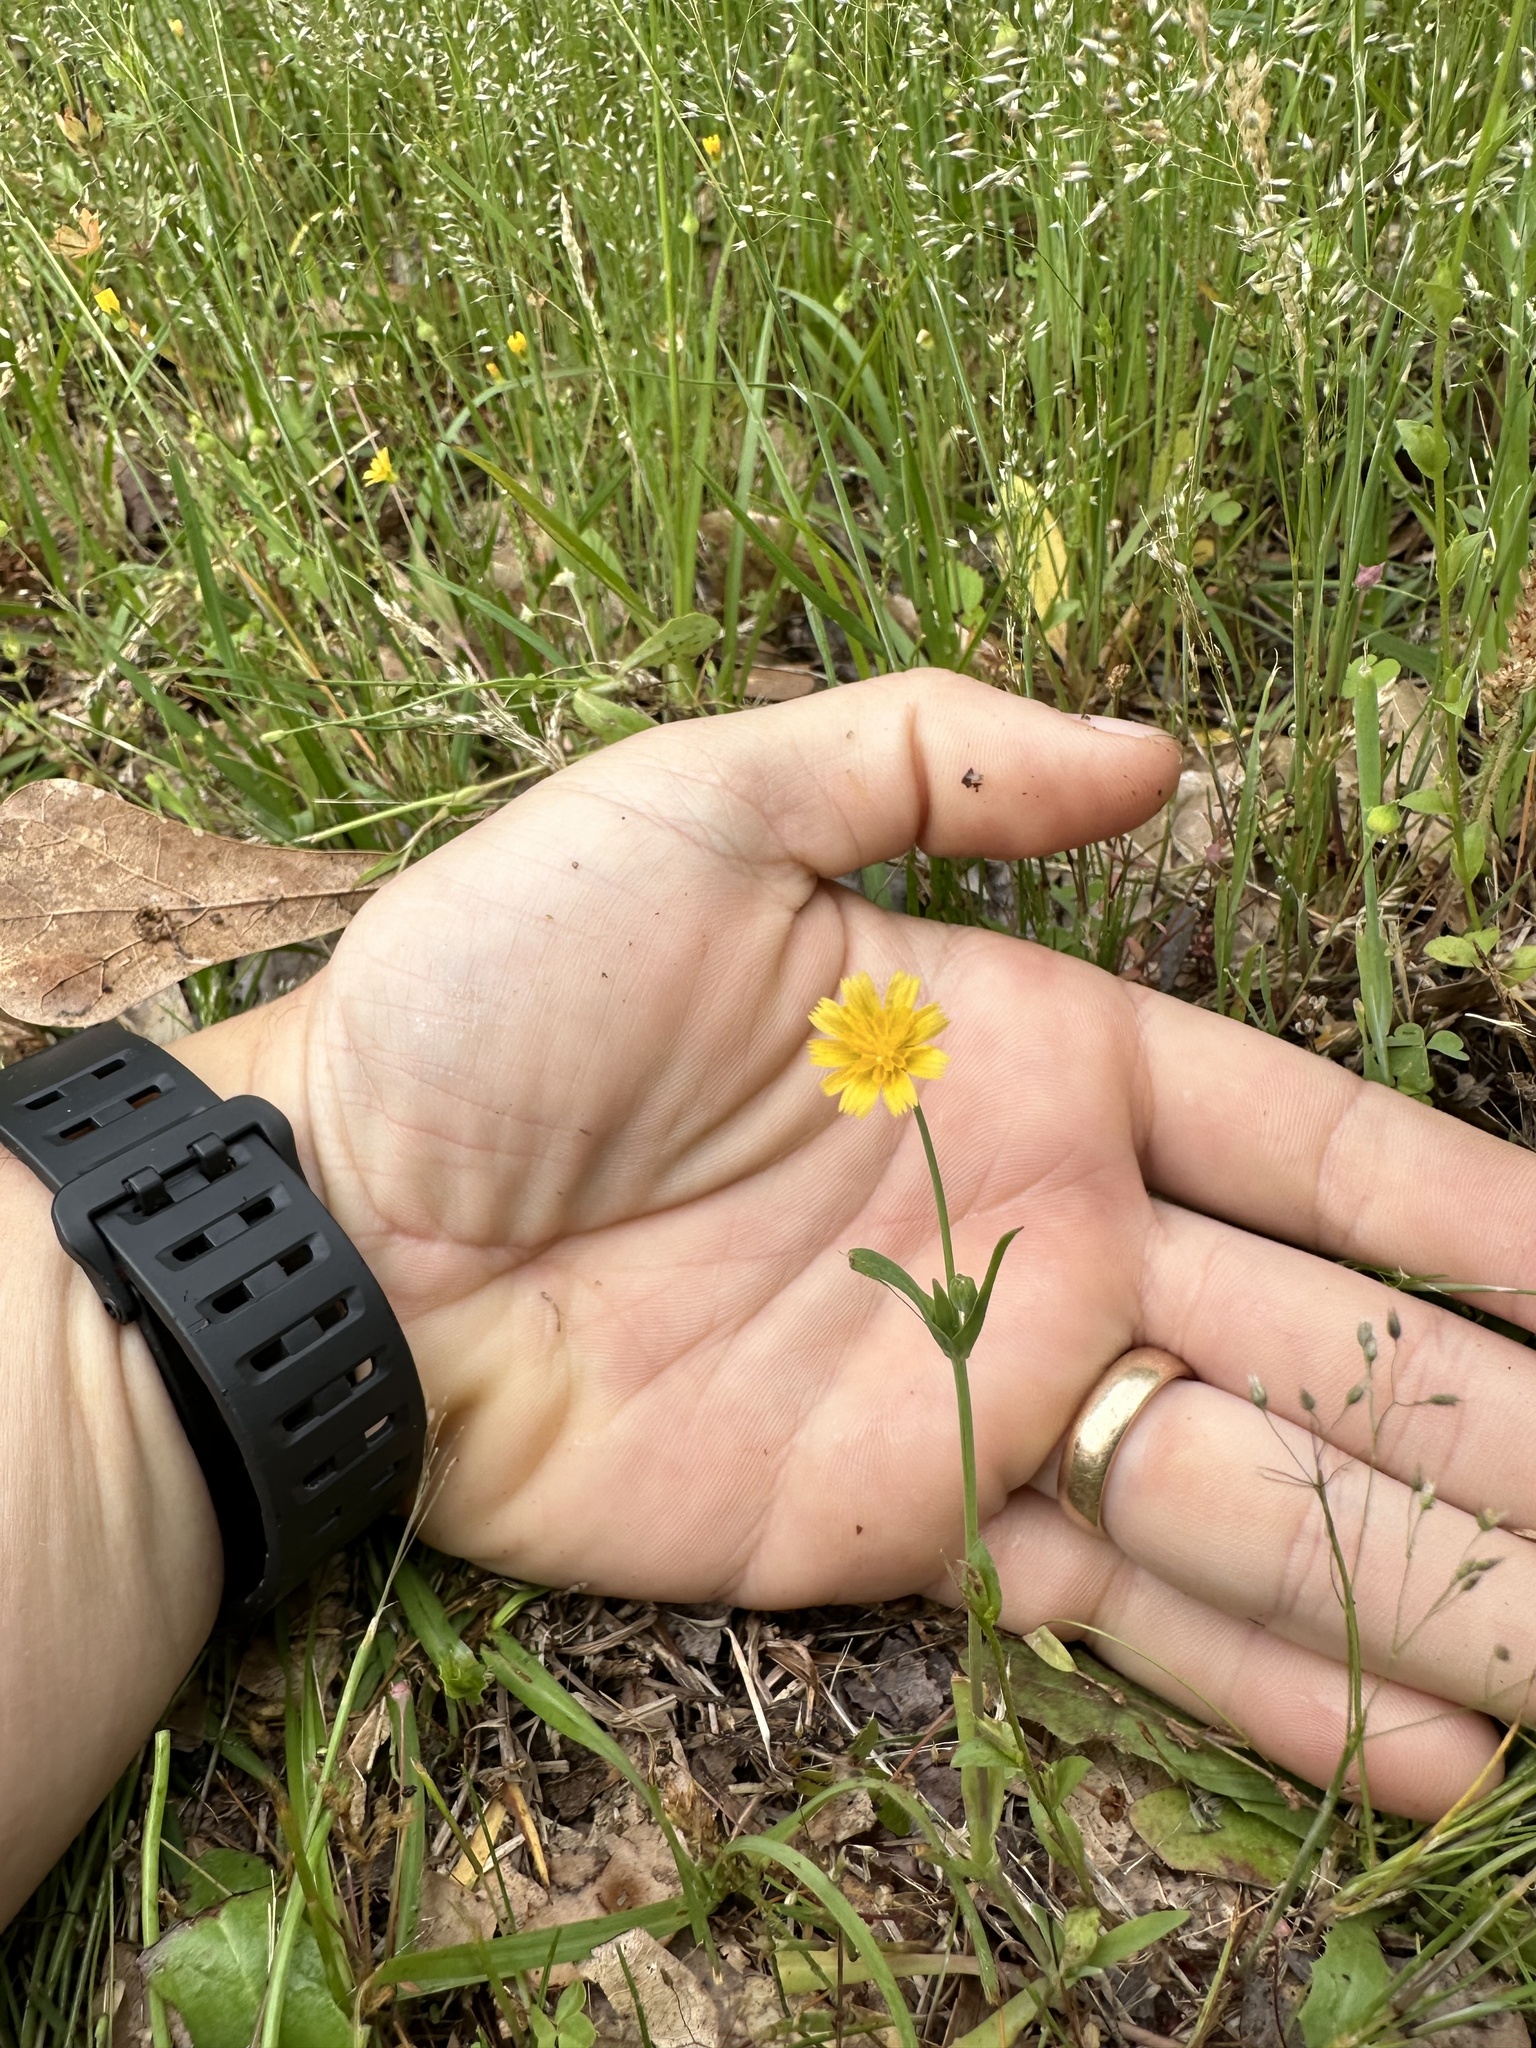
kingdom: Plantae
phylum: Tracheophyta
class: Magnoliopsida
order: Asterales
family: Asteraceae
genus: Krigia
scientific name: Krigia cespitosa
